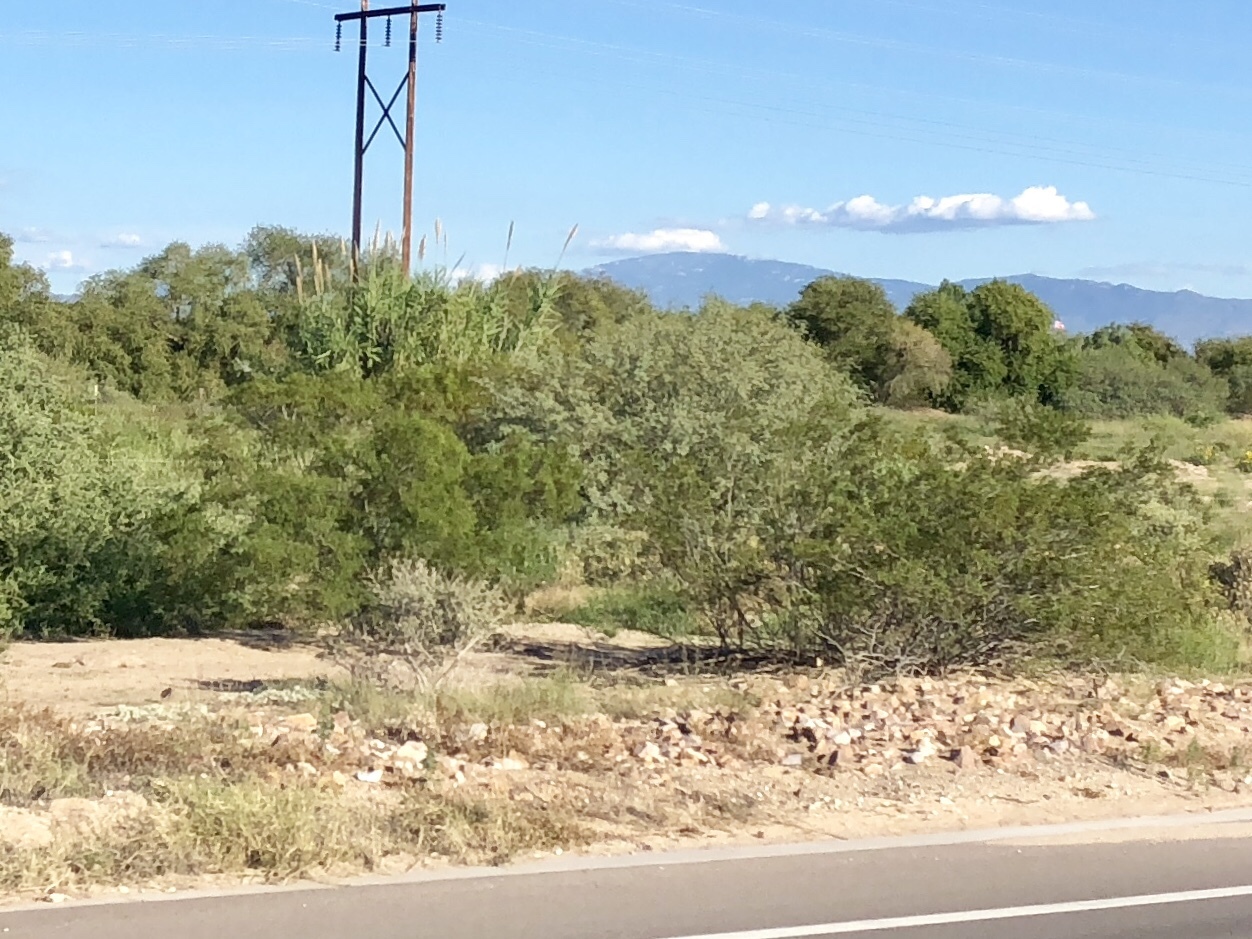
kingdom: Plantae
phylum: Tracheophyta
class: Magnoliopsida
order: Zygophyllales
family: Zygophyllaceae
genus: Larrea
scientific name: Larrea tridentata
